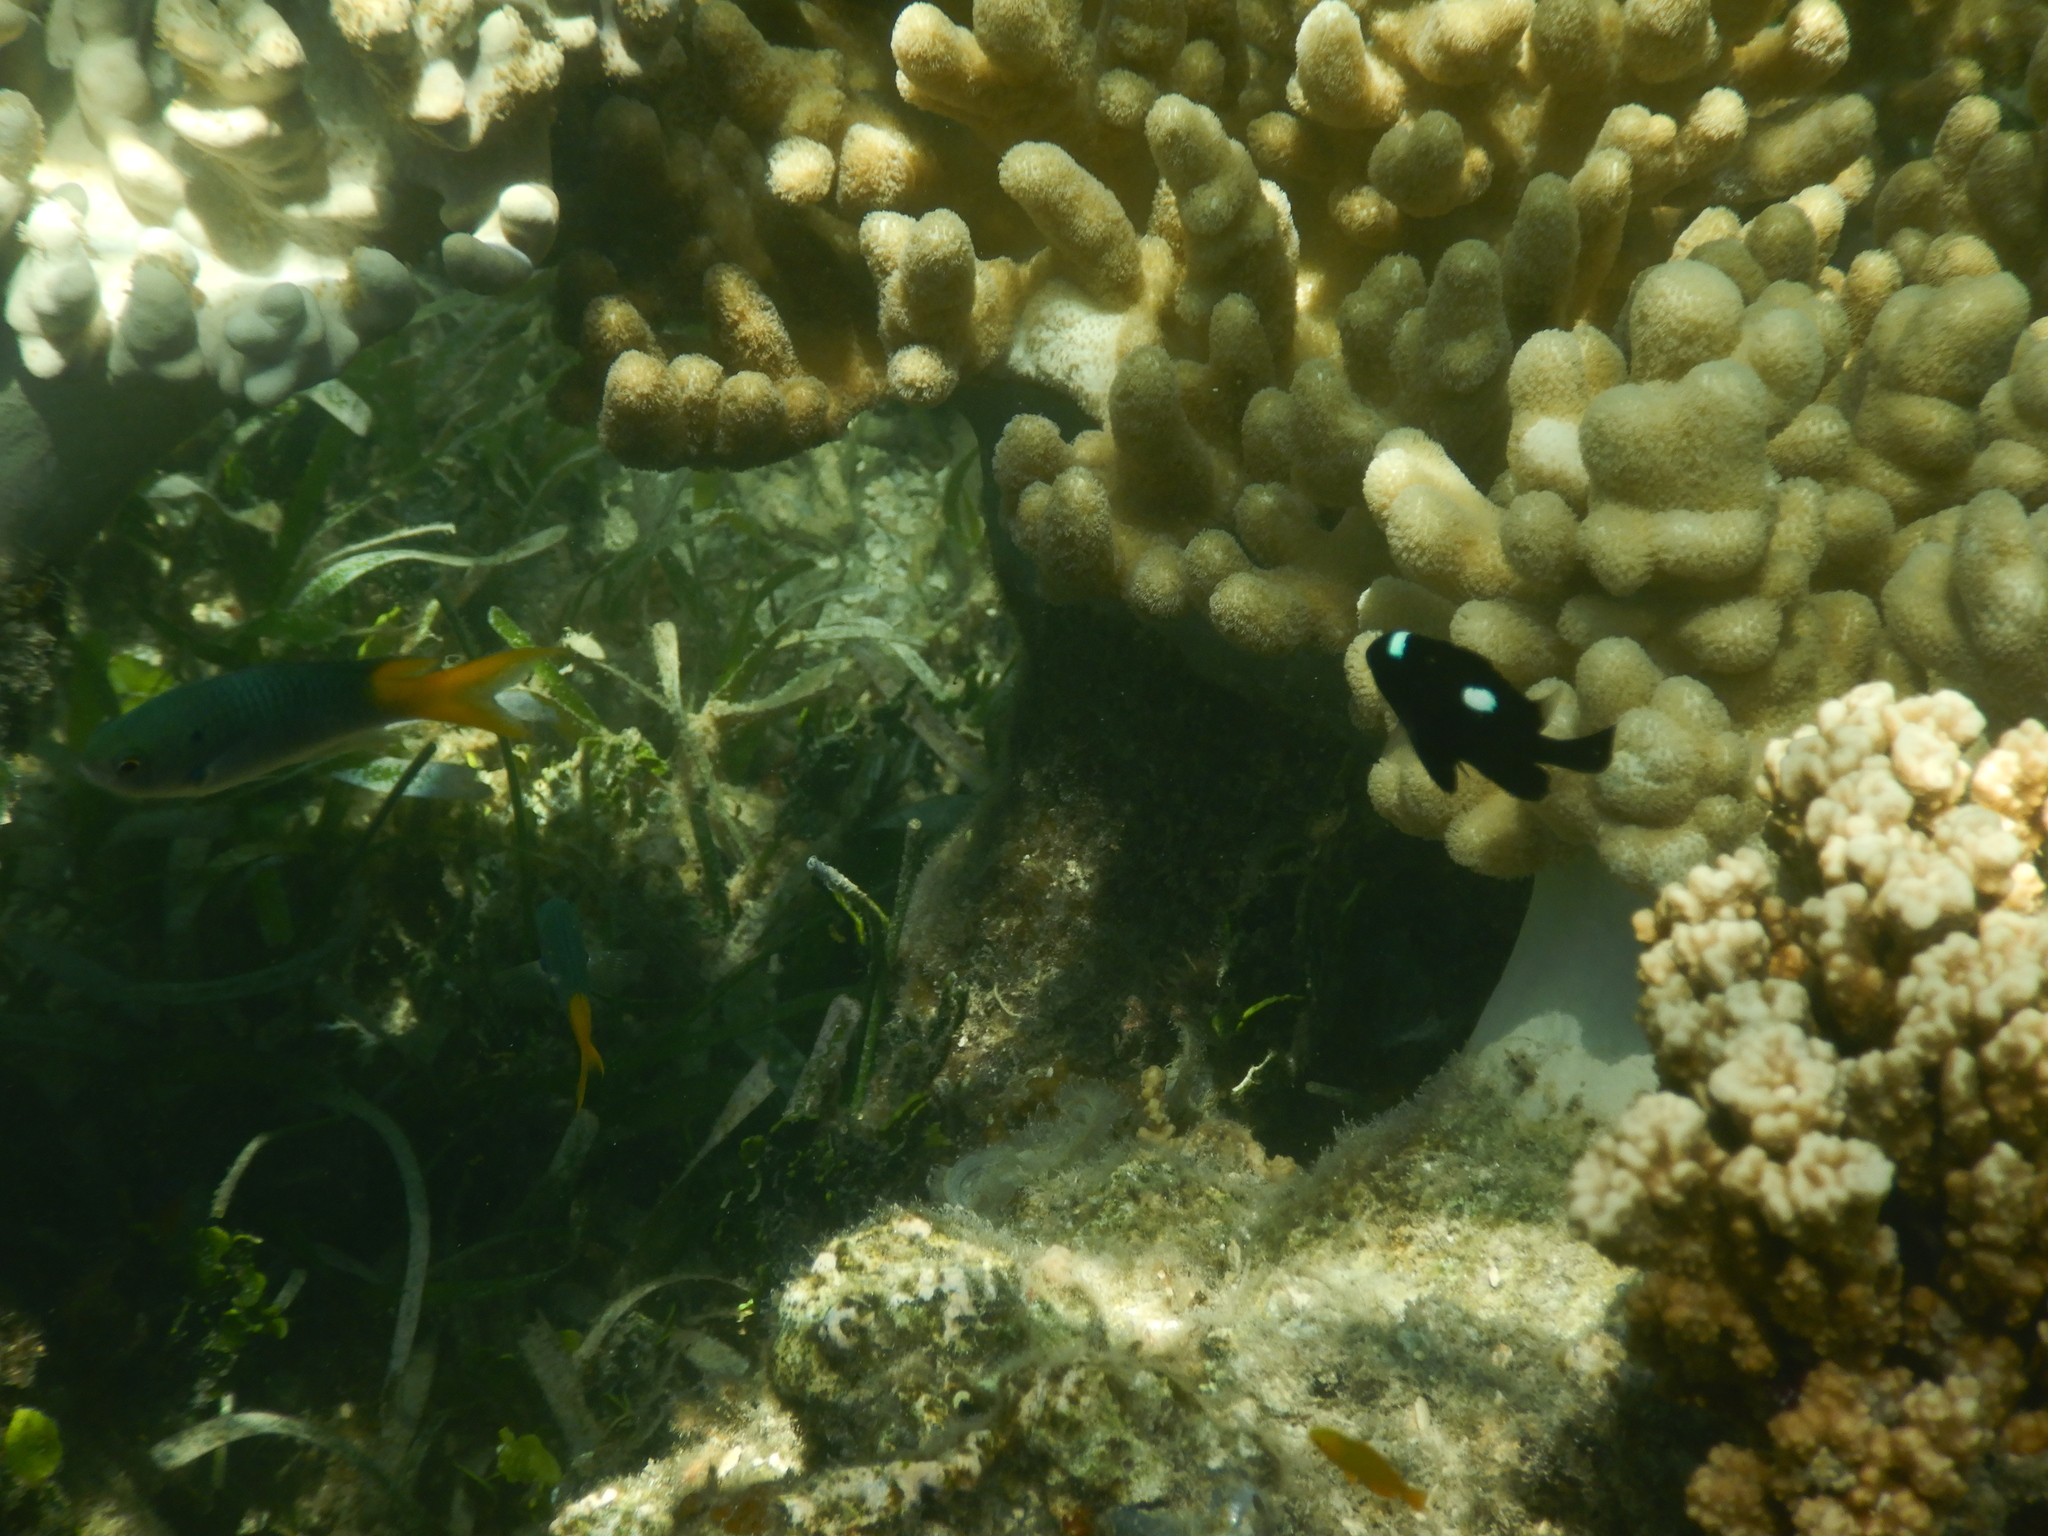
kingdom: Animalia
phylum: Chordata
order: Perciformes
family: Pomacentridae
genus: Dascyllus
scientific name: Dascyllus trimaculatus
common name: Threespot dascyllus
